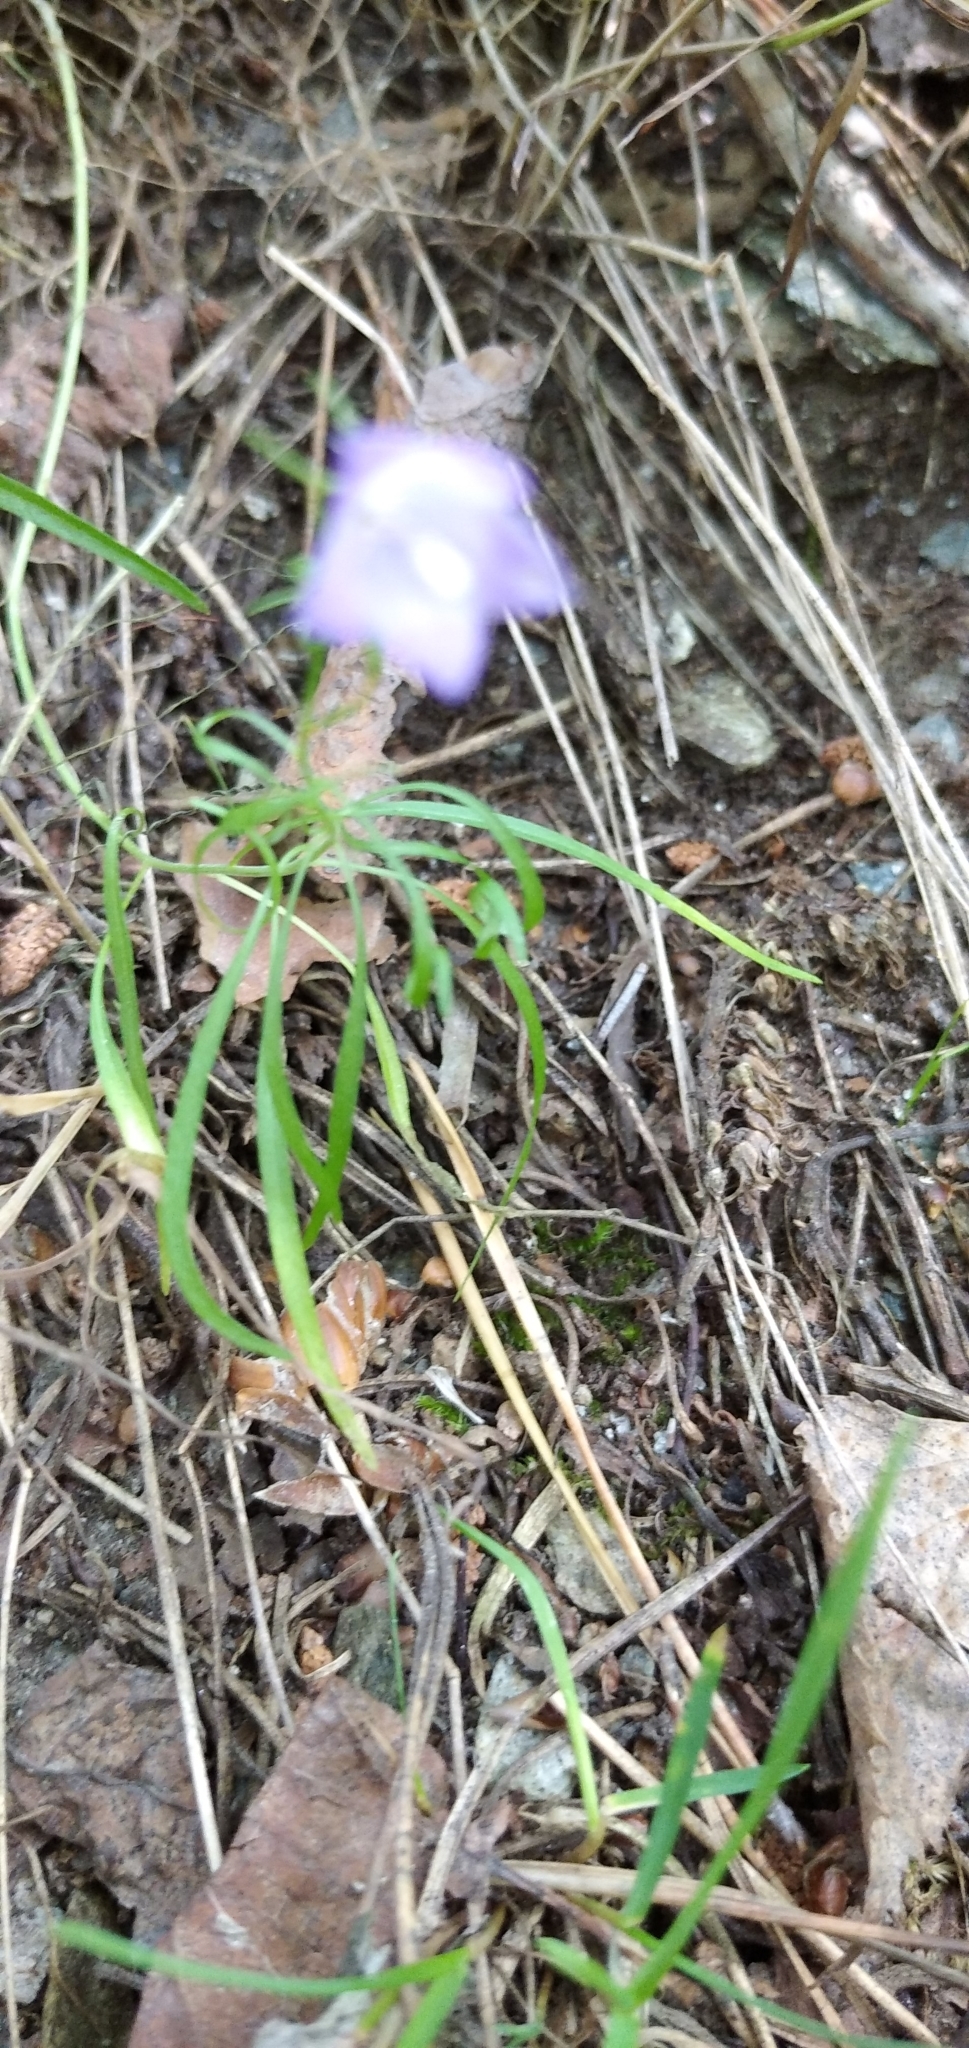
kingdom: Plantae
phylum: Tracheophyta
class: Magnoliopsida
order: Asterales
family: Campanulaceae
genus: Campanula
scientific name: Campanula rotundifolia
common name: Harebell
